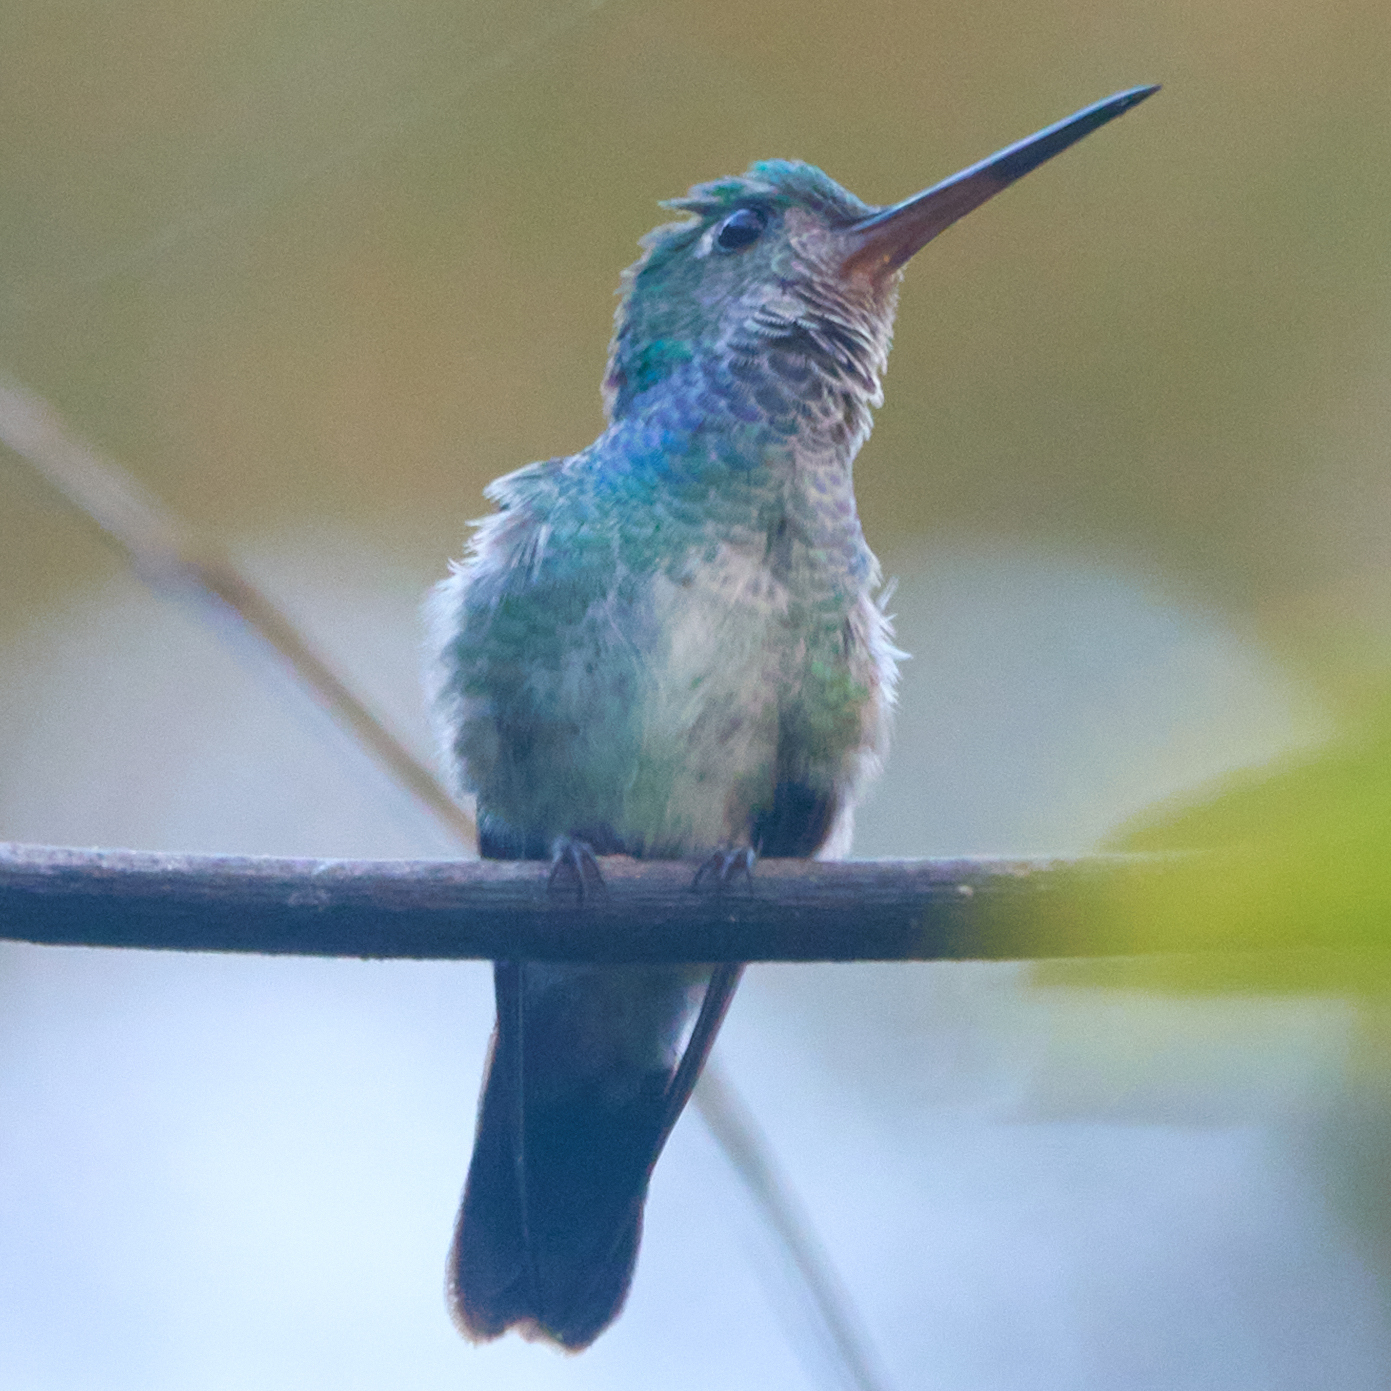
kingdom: Animalia
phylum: Chordata
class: Aves
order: Apodiformes
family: Trochilidae
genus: Polyerata
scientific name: Polyerata decora
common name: Charming hummingbird
